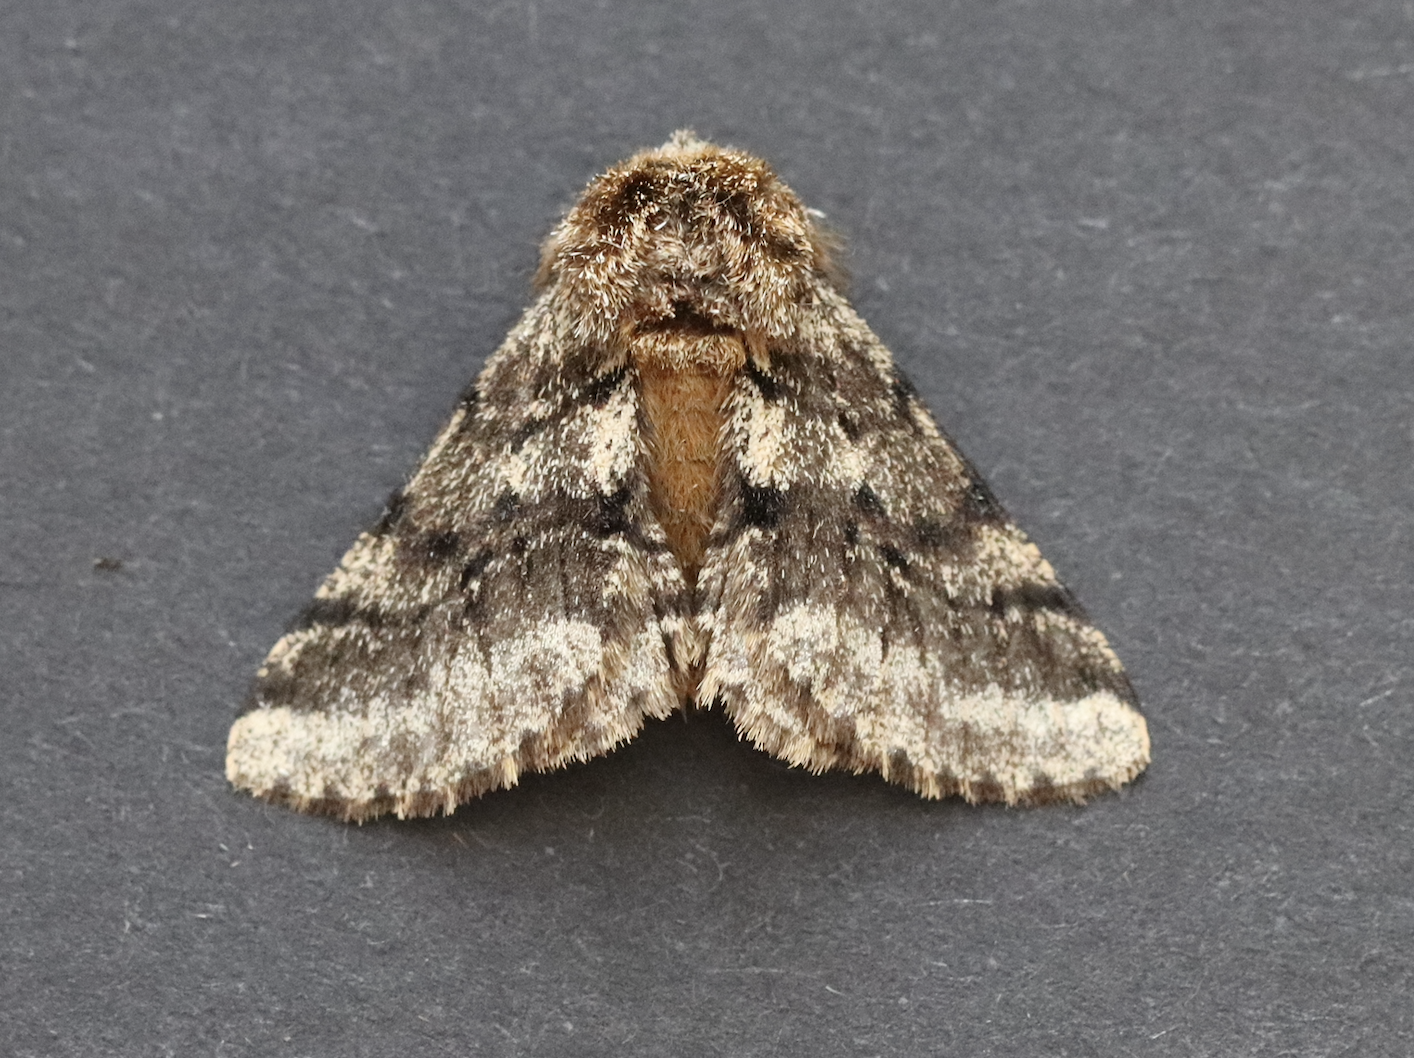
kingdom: Animalia
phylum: Arthropoda
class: Insecta
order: Lepidoptera
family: Geometridae
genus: Lycia
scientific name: Lycia hirtaria
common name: Brindled beauty
